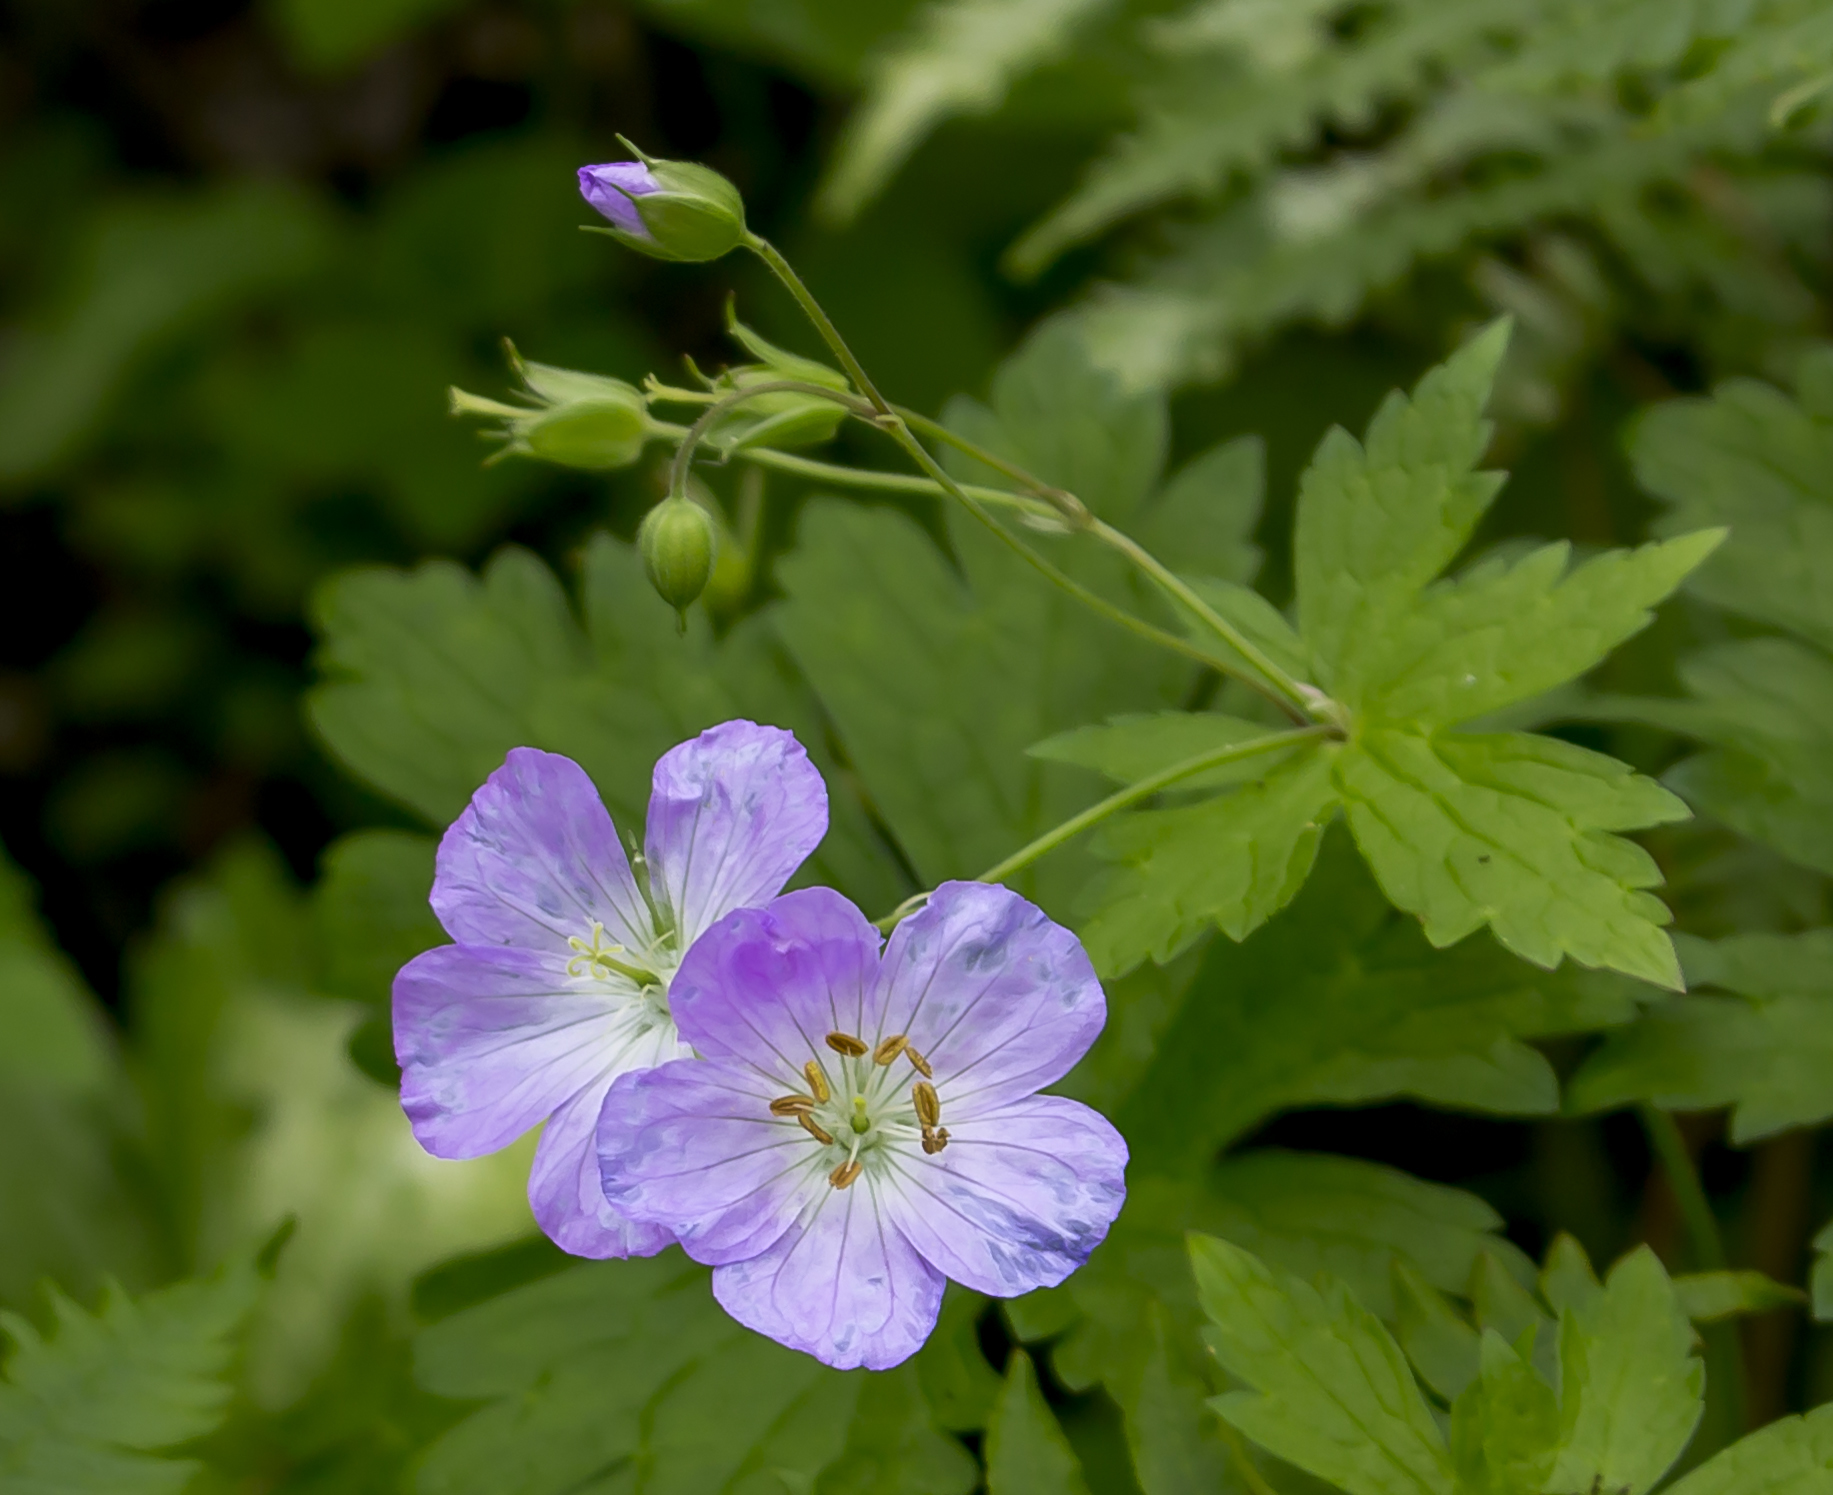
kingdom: Plantae
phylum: Tracheophyta
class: Magnoliopsida
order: Geraniales
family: Geraniaceae
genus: Geranium
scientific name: Geranium maculatum
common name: Spotted geranium
